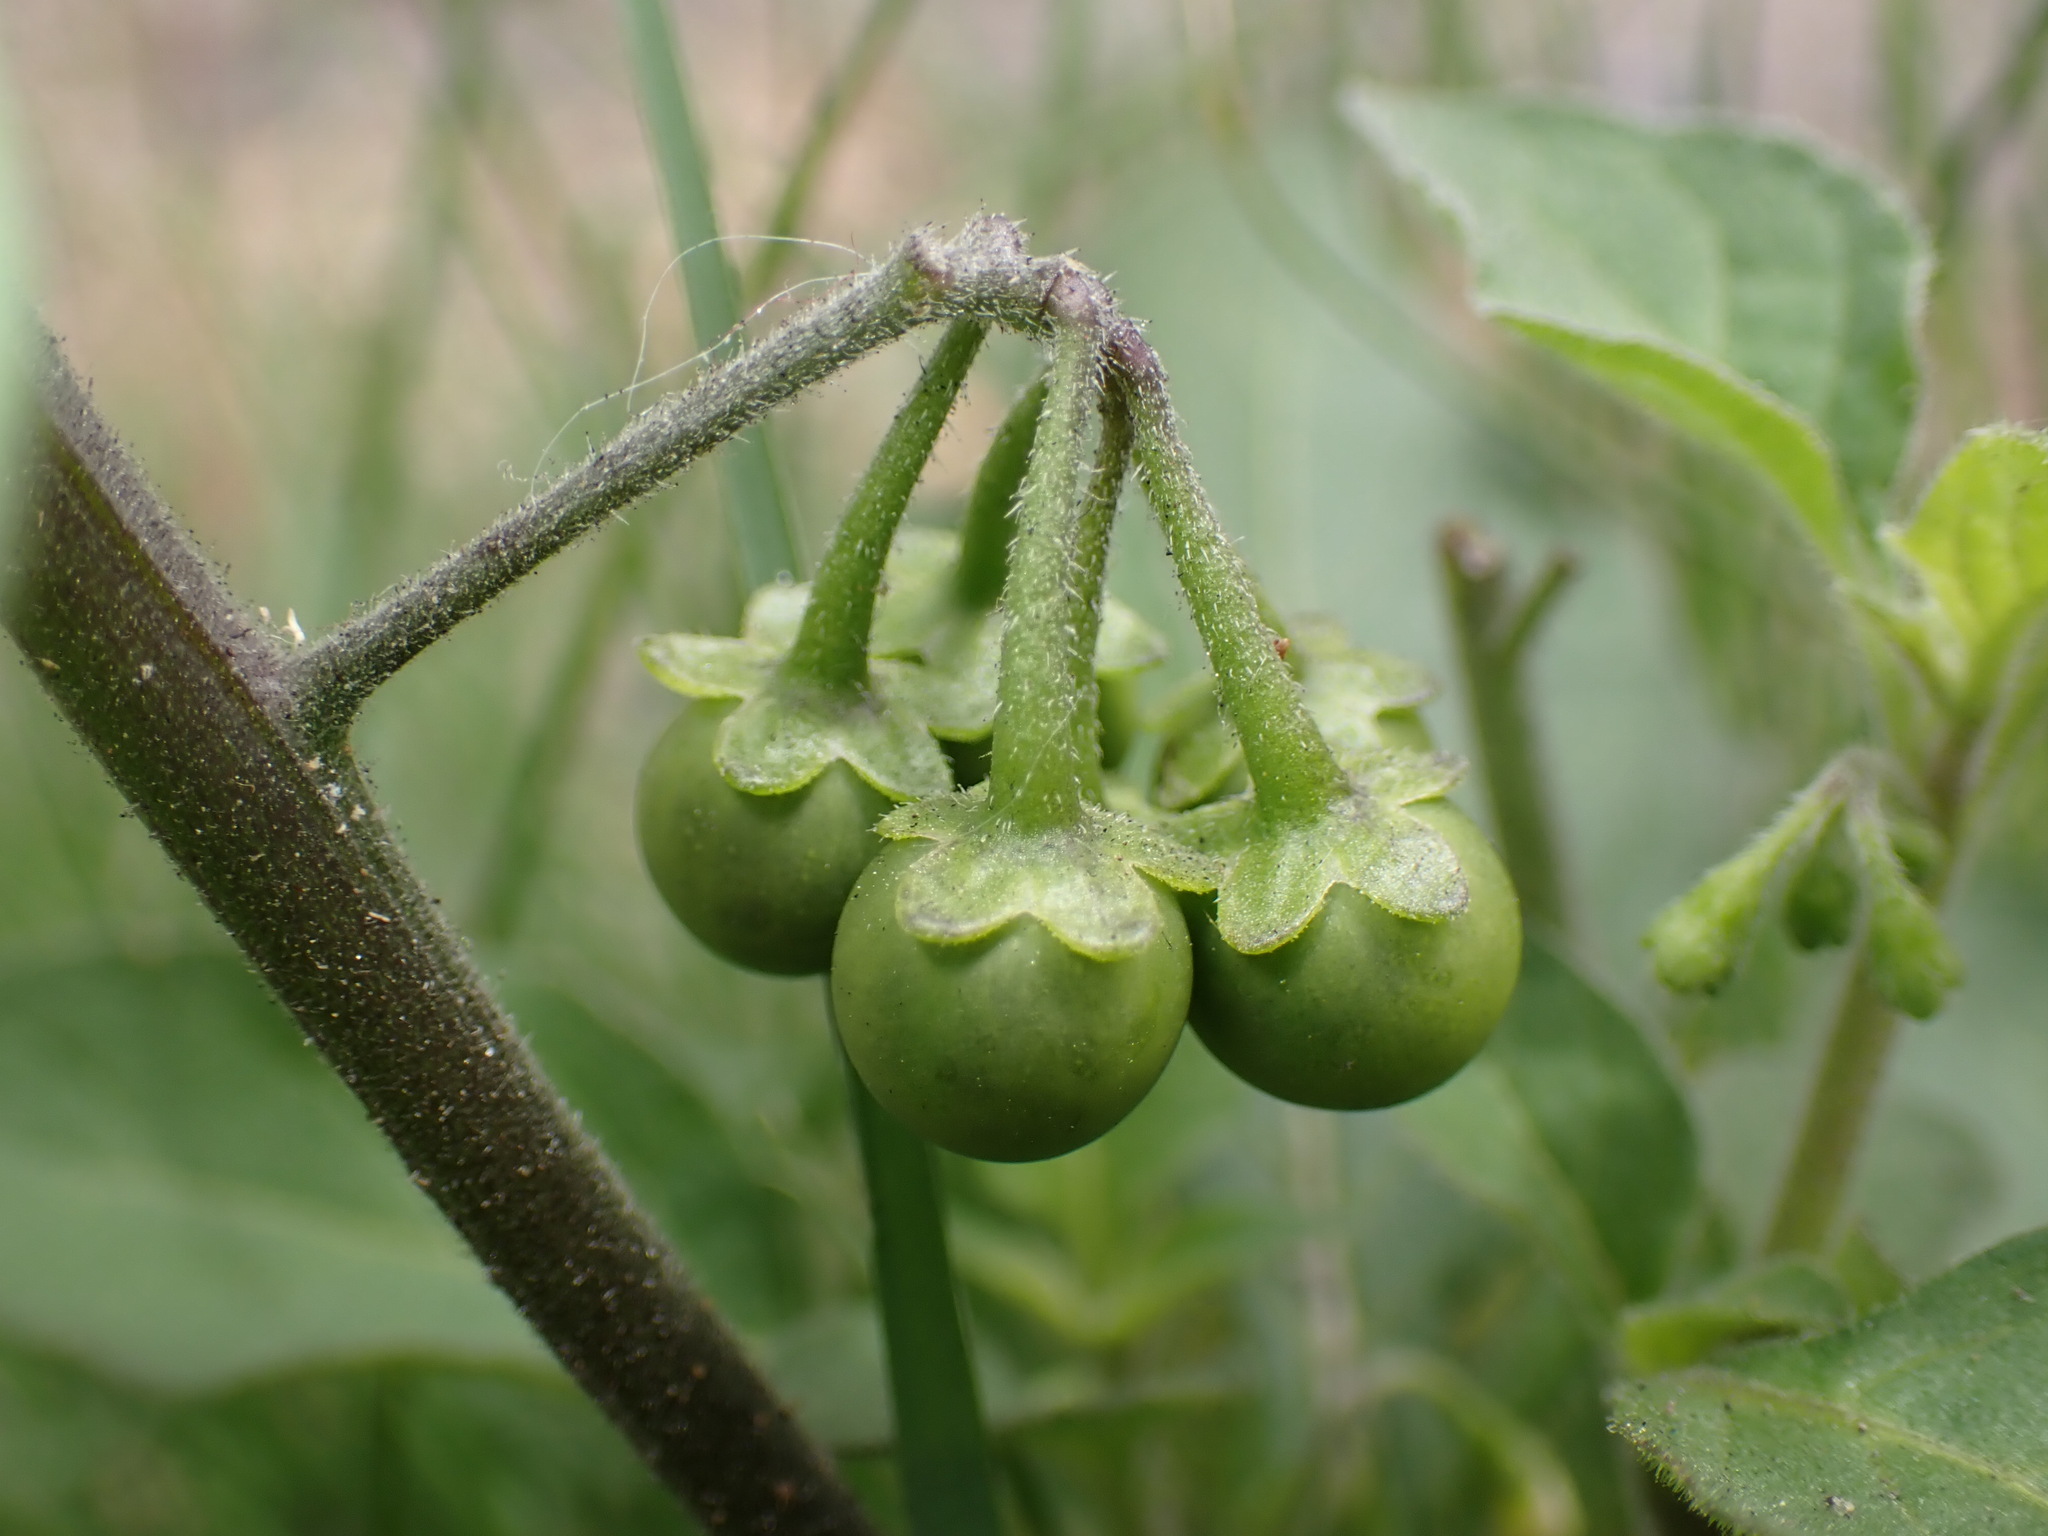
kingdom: Plantae
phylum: Tracheophyta
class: Magnoliopsida
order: Solanales
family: Solanaceae
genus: Solanum
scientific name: Solanum nigrum
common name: Black nightshade
